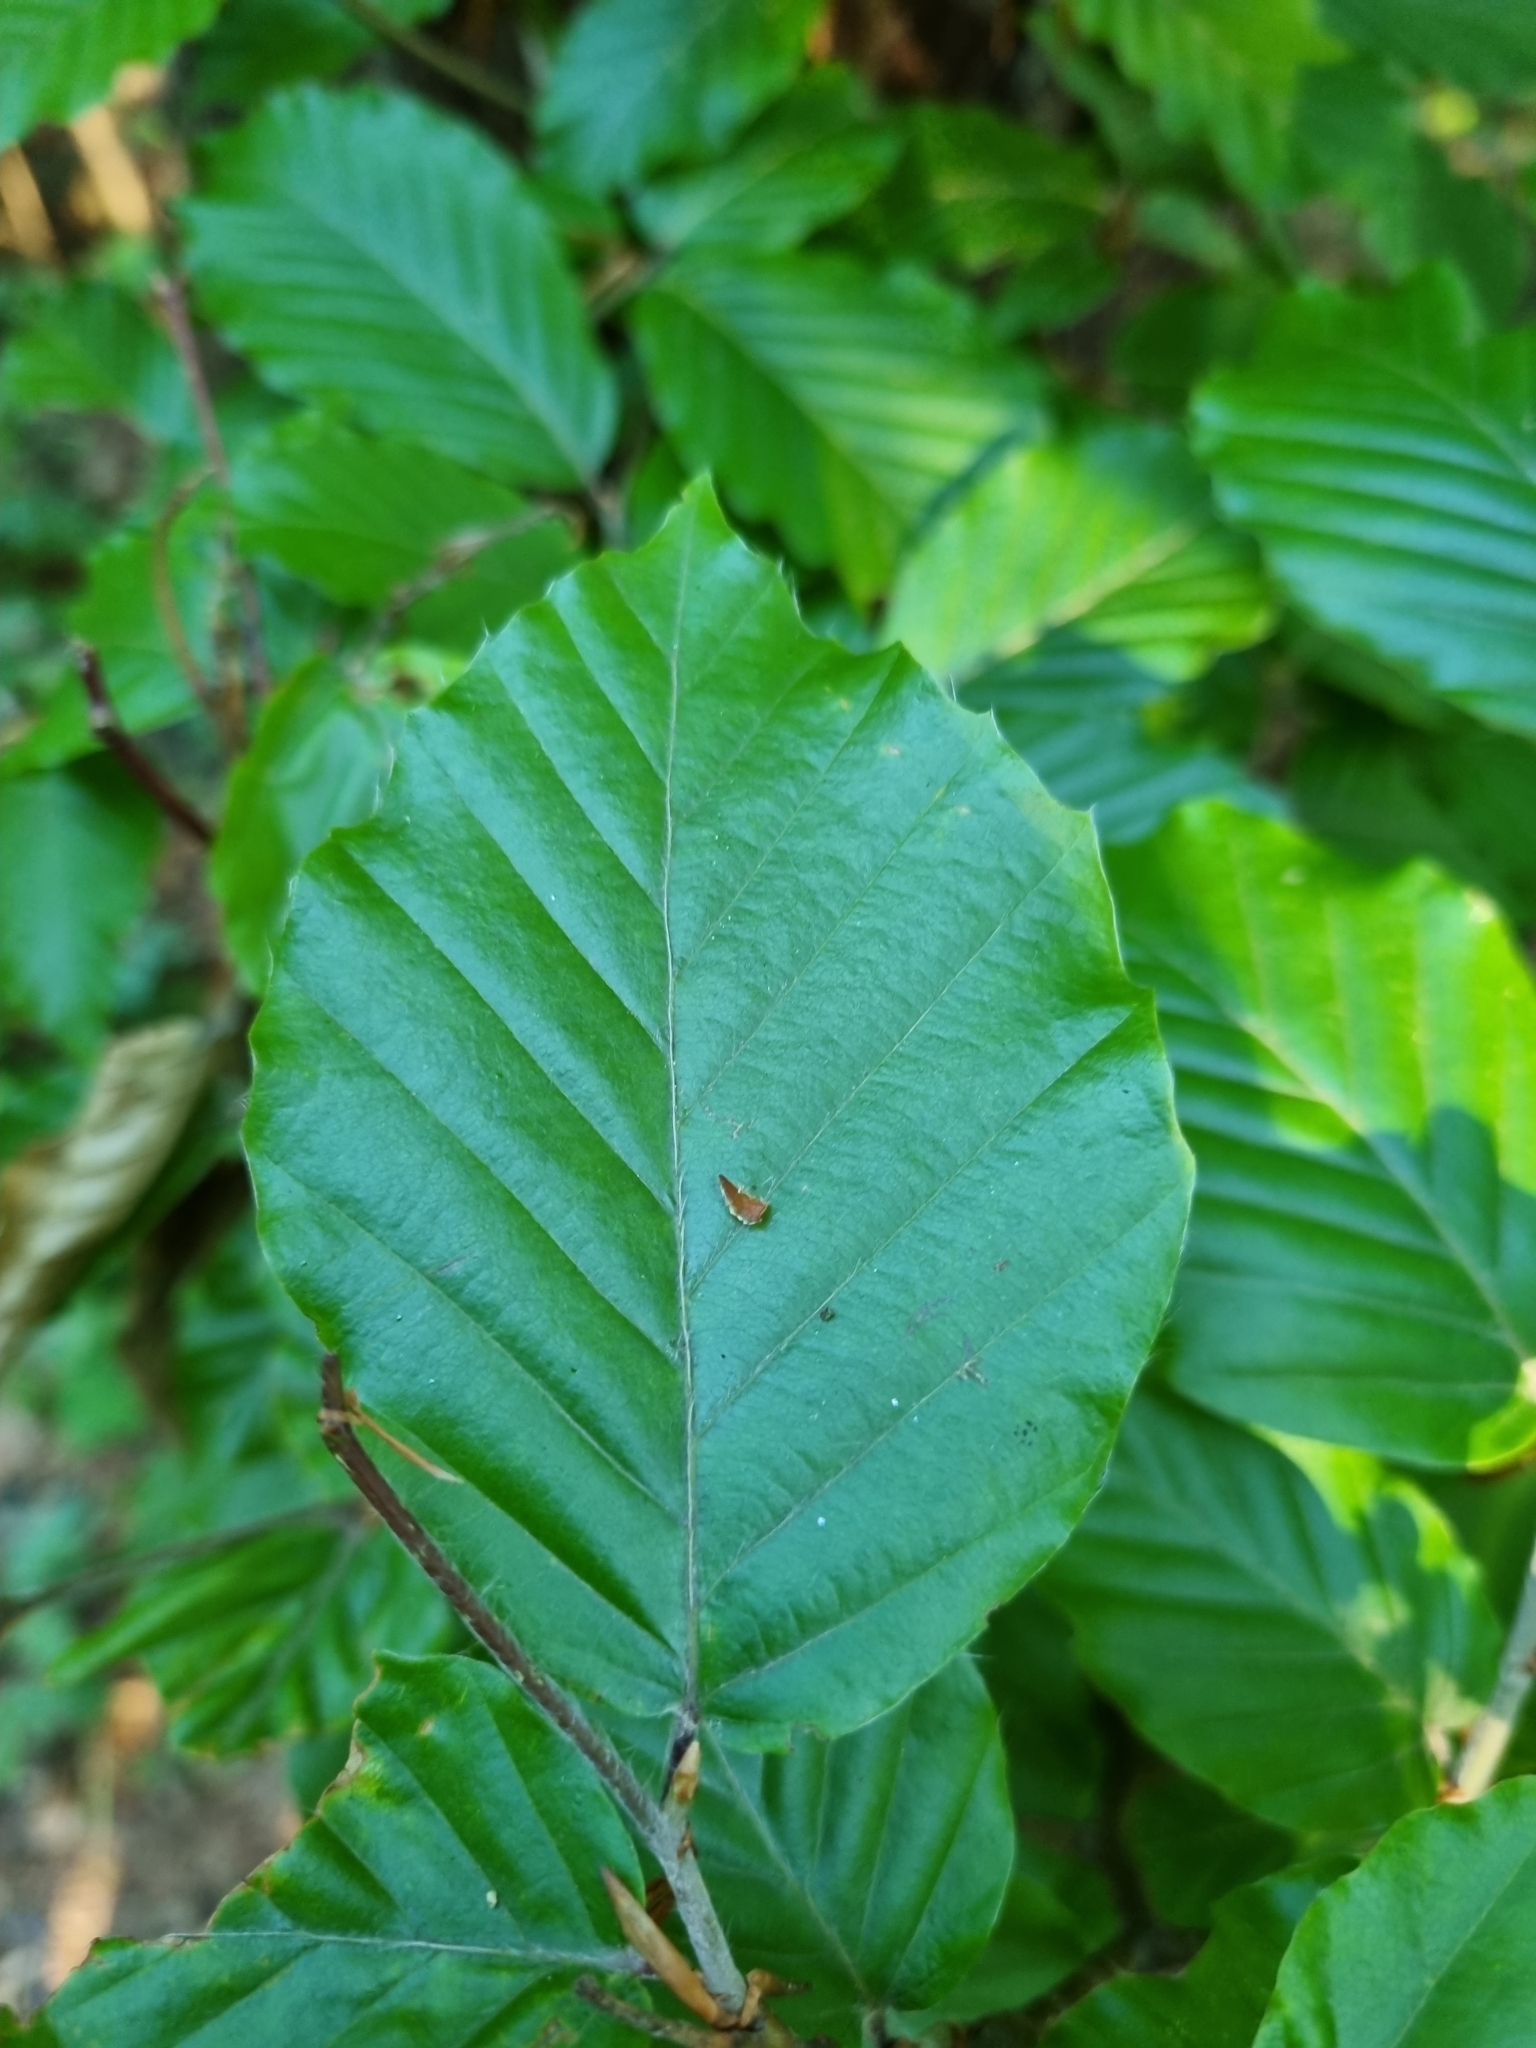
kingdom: Plantae
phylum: Tracheophyta
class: Magnoliopsida
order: Fagales
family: Fagaceae
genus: Fagus
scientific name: Fagus sylvatica
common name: Beech
